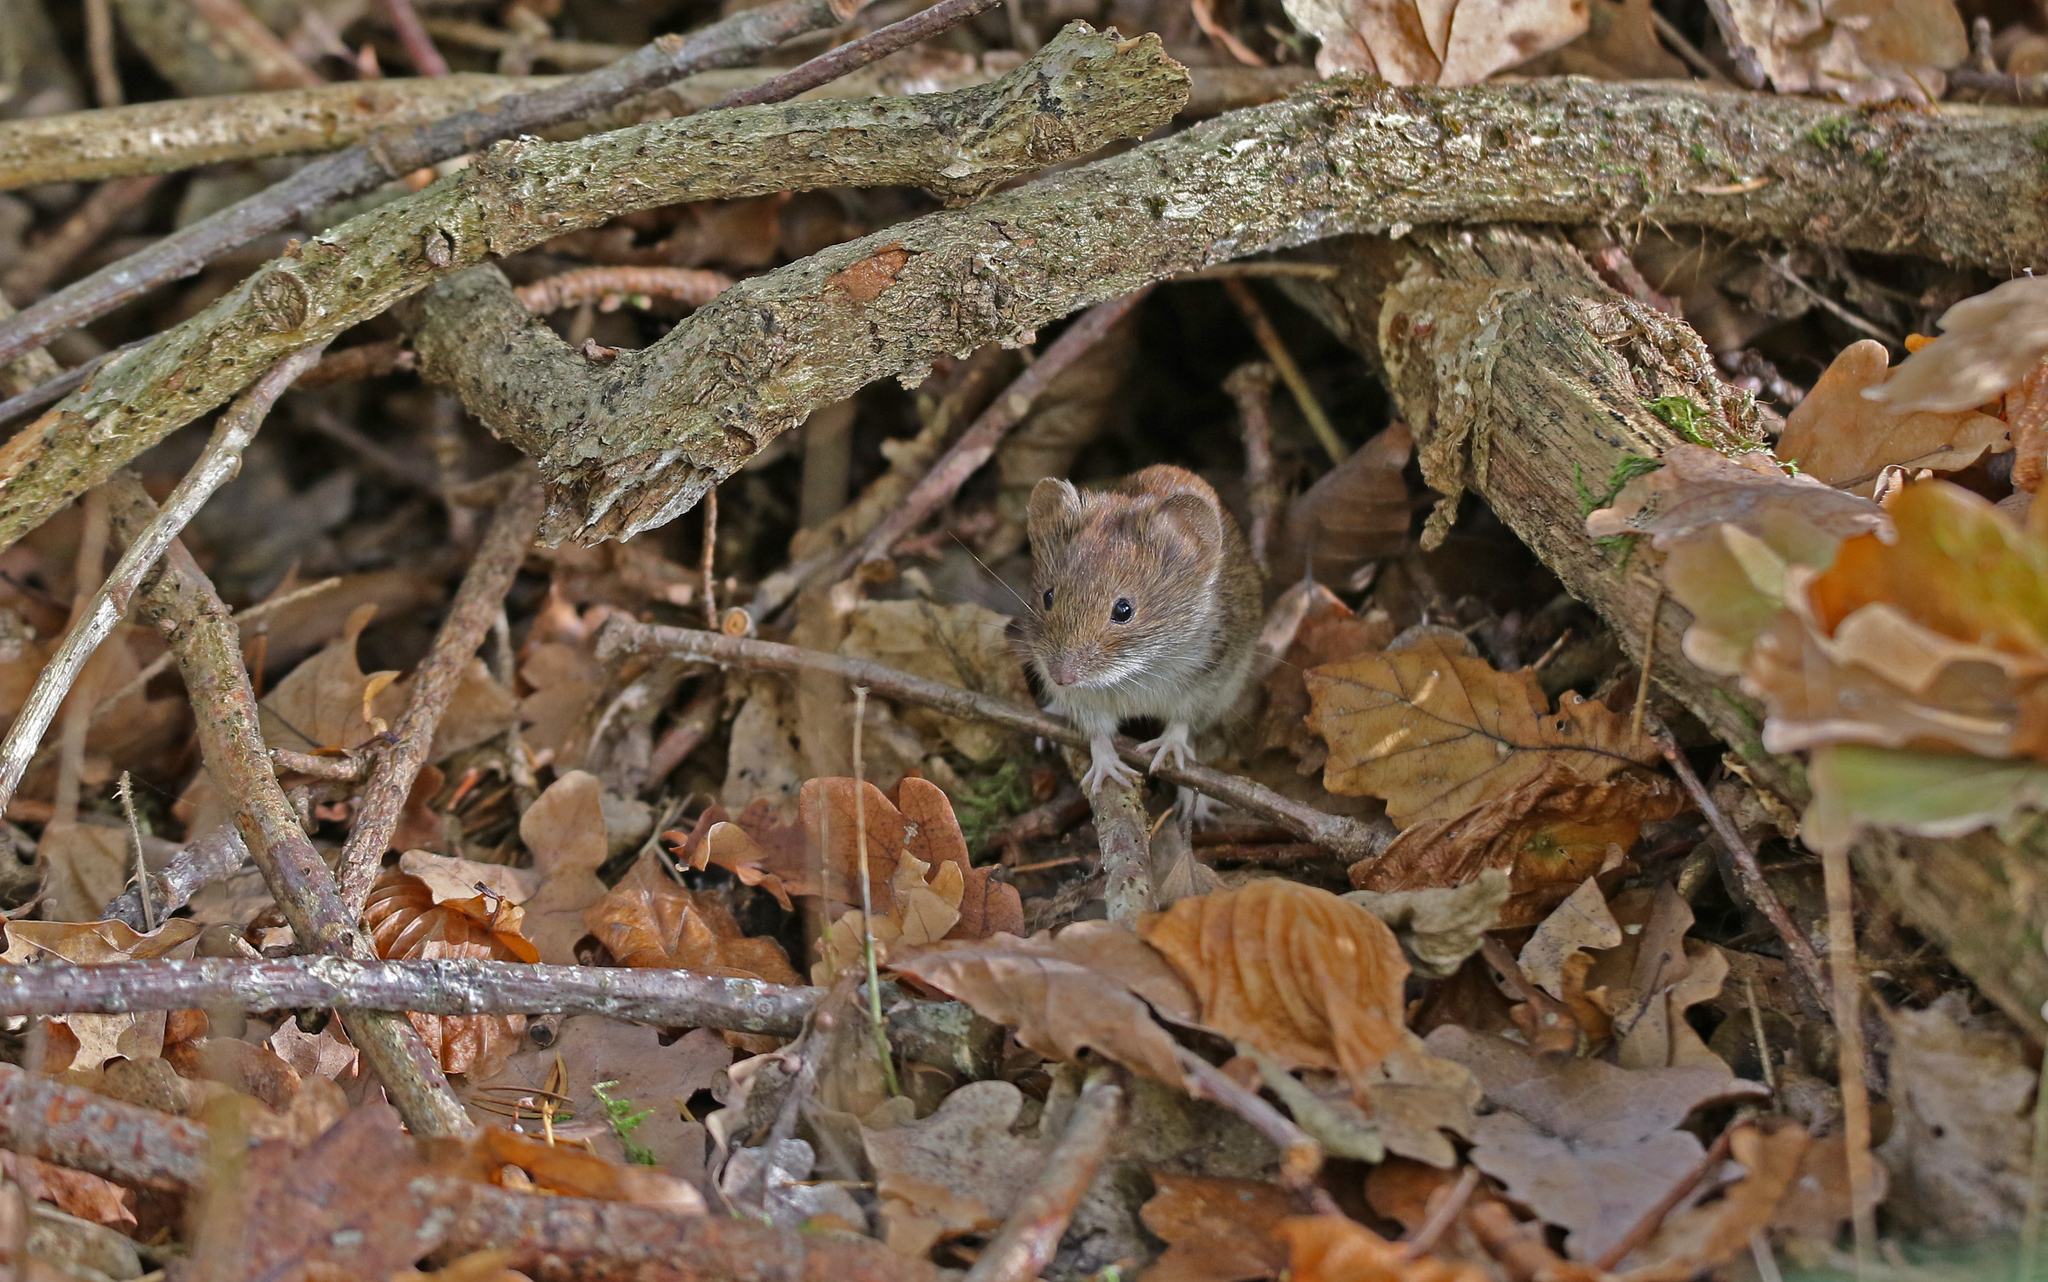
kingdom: Animalia
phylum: Chordata
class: Mammalia
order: Rodentia
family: Cricetidae
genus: Myodes
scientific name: Myodes glareolus
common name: Bank vole
